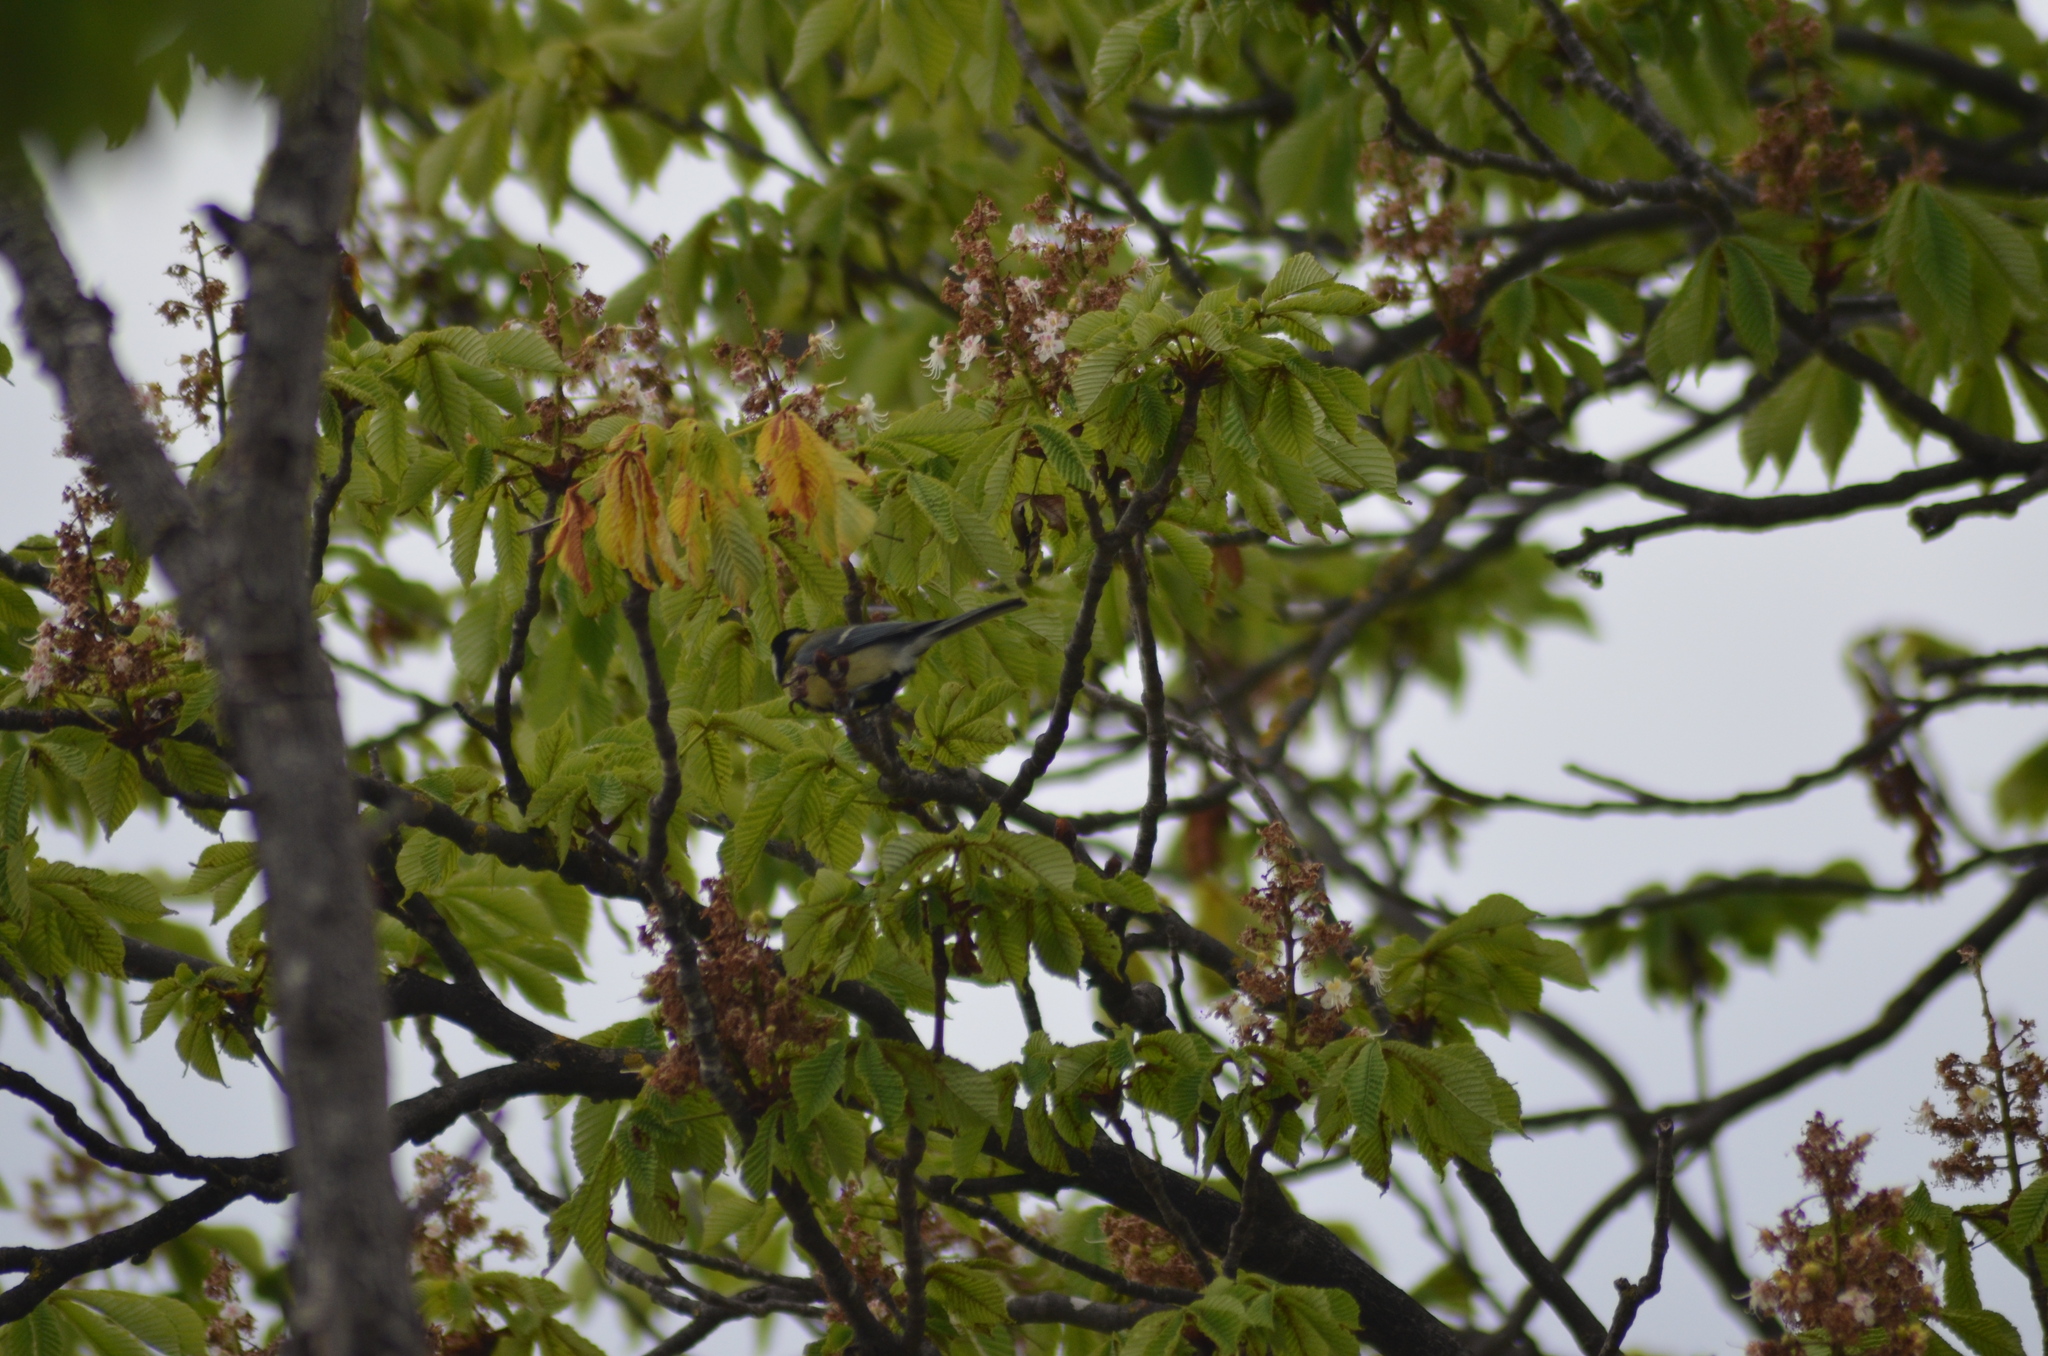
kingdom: Animalia
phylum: Chordata
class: Aves
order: Passeriformes
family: Paridae
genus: Parus
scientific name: Parus major
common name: Great tit
